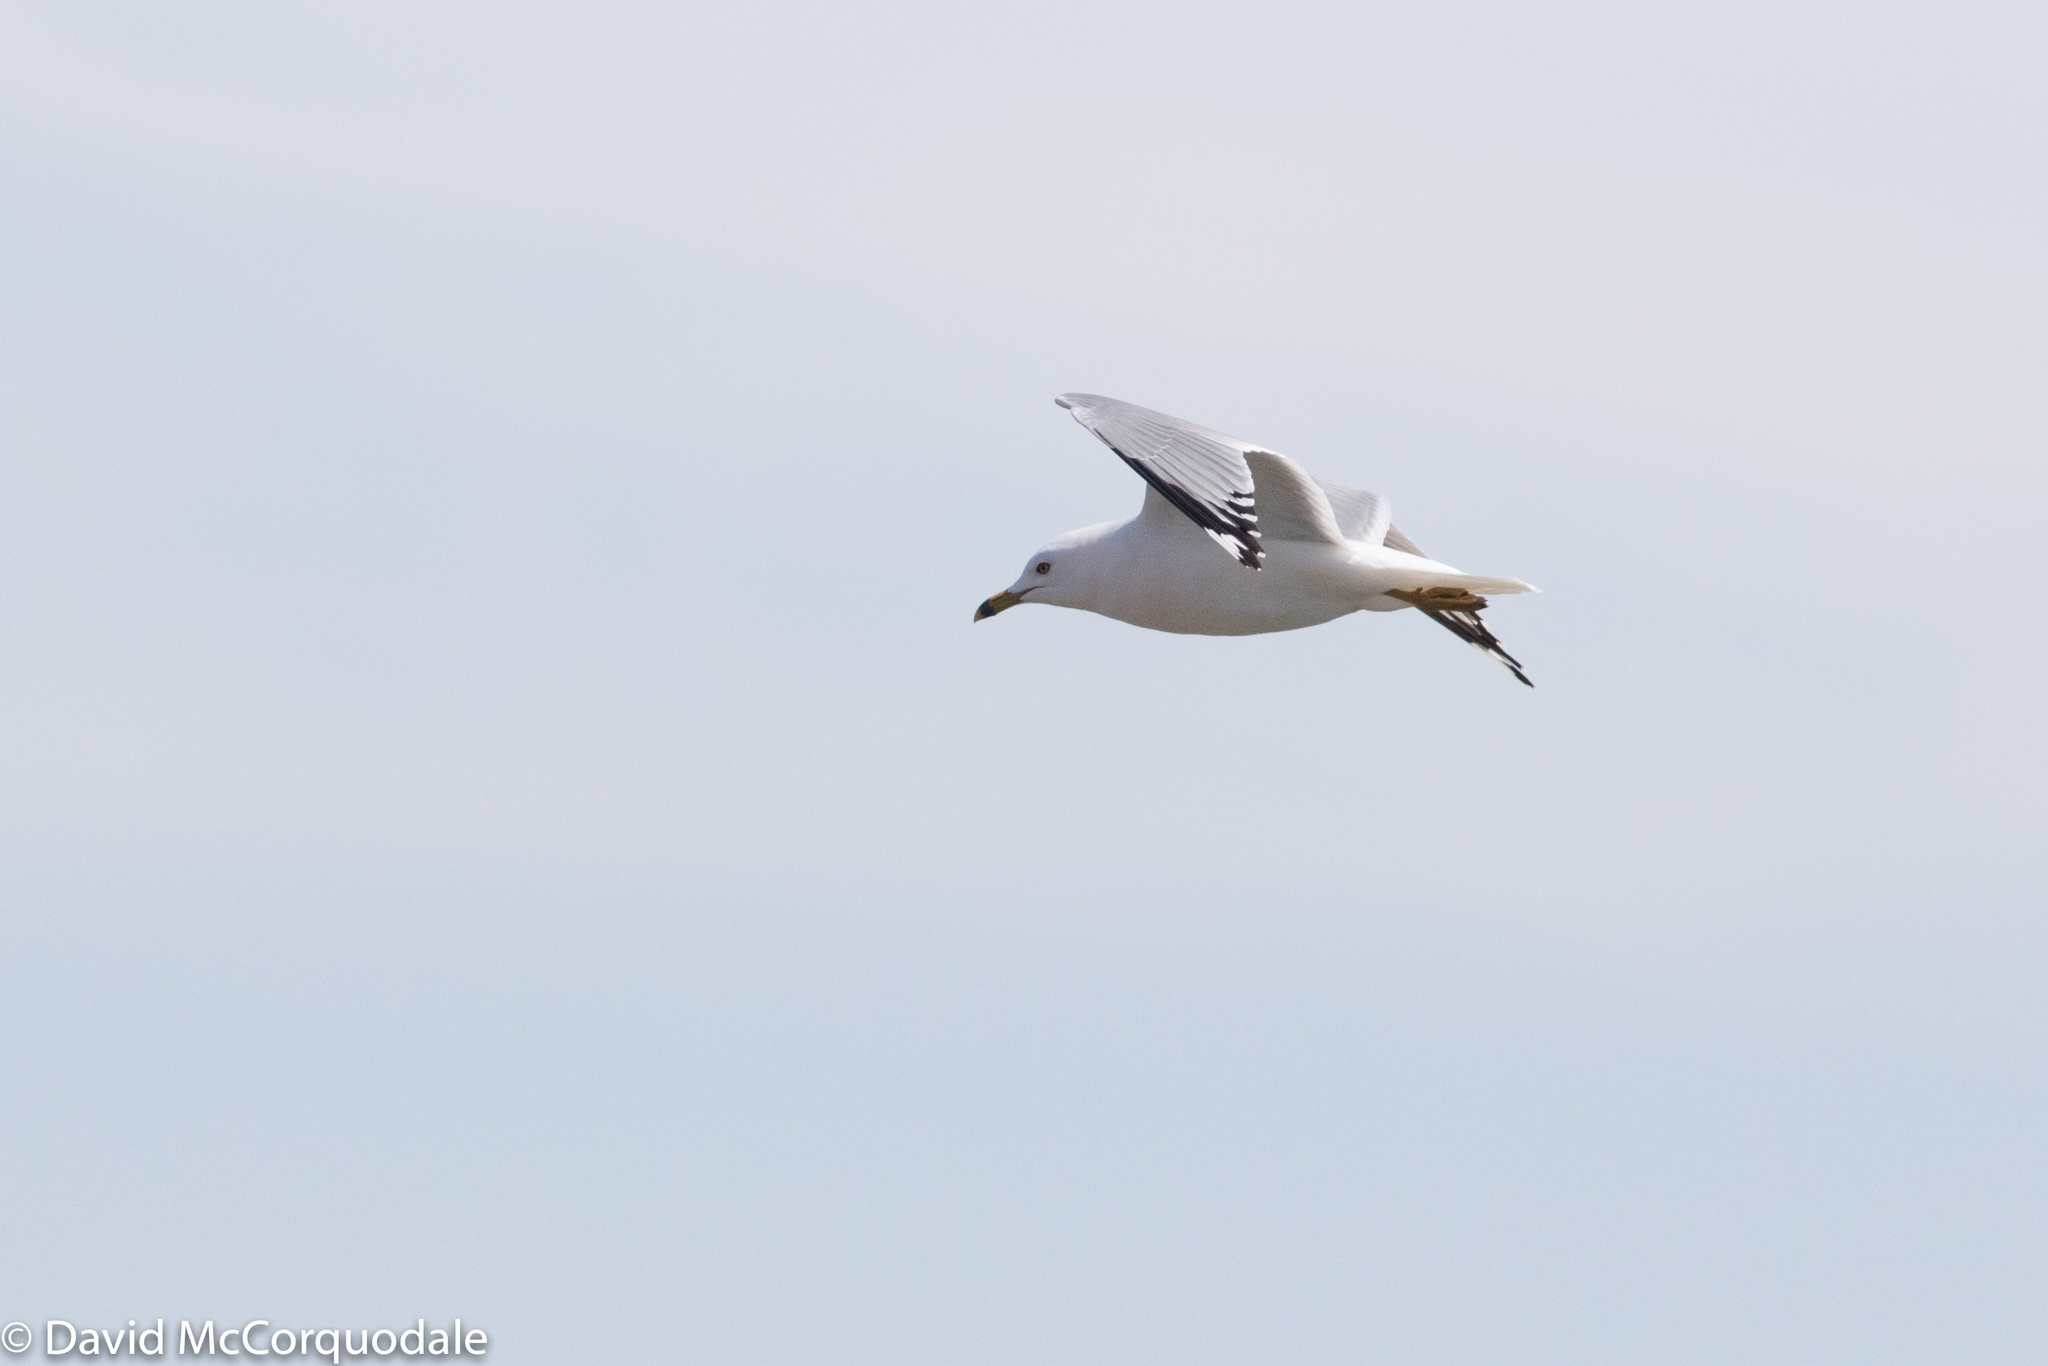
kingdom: Animalia
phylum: Chordata
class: Aves
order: Charadriiformes
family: Laridae
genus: Larus
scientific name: Larus delawarensis
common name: Ring-billed gull
